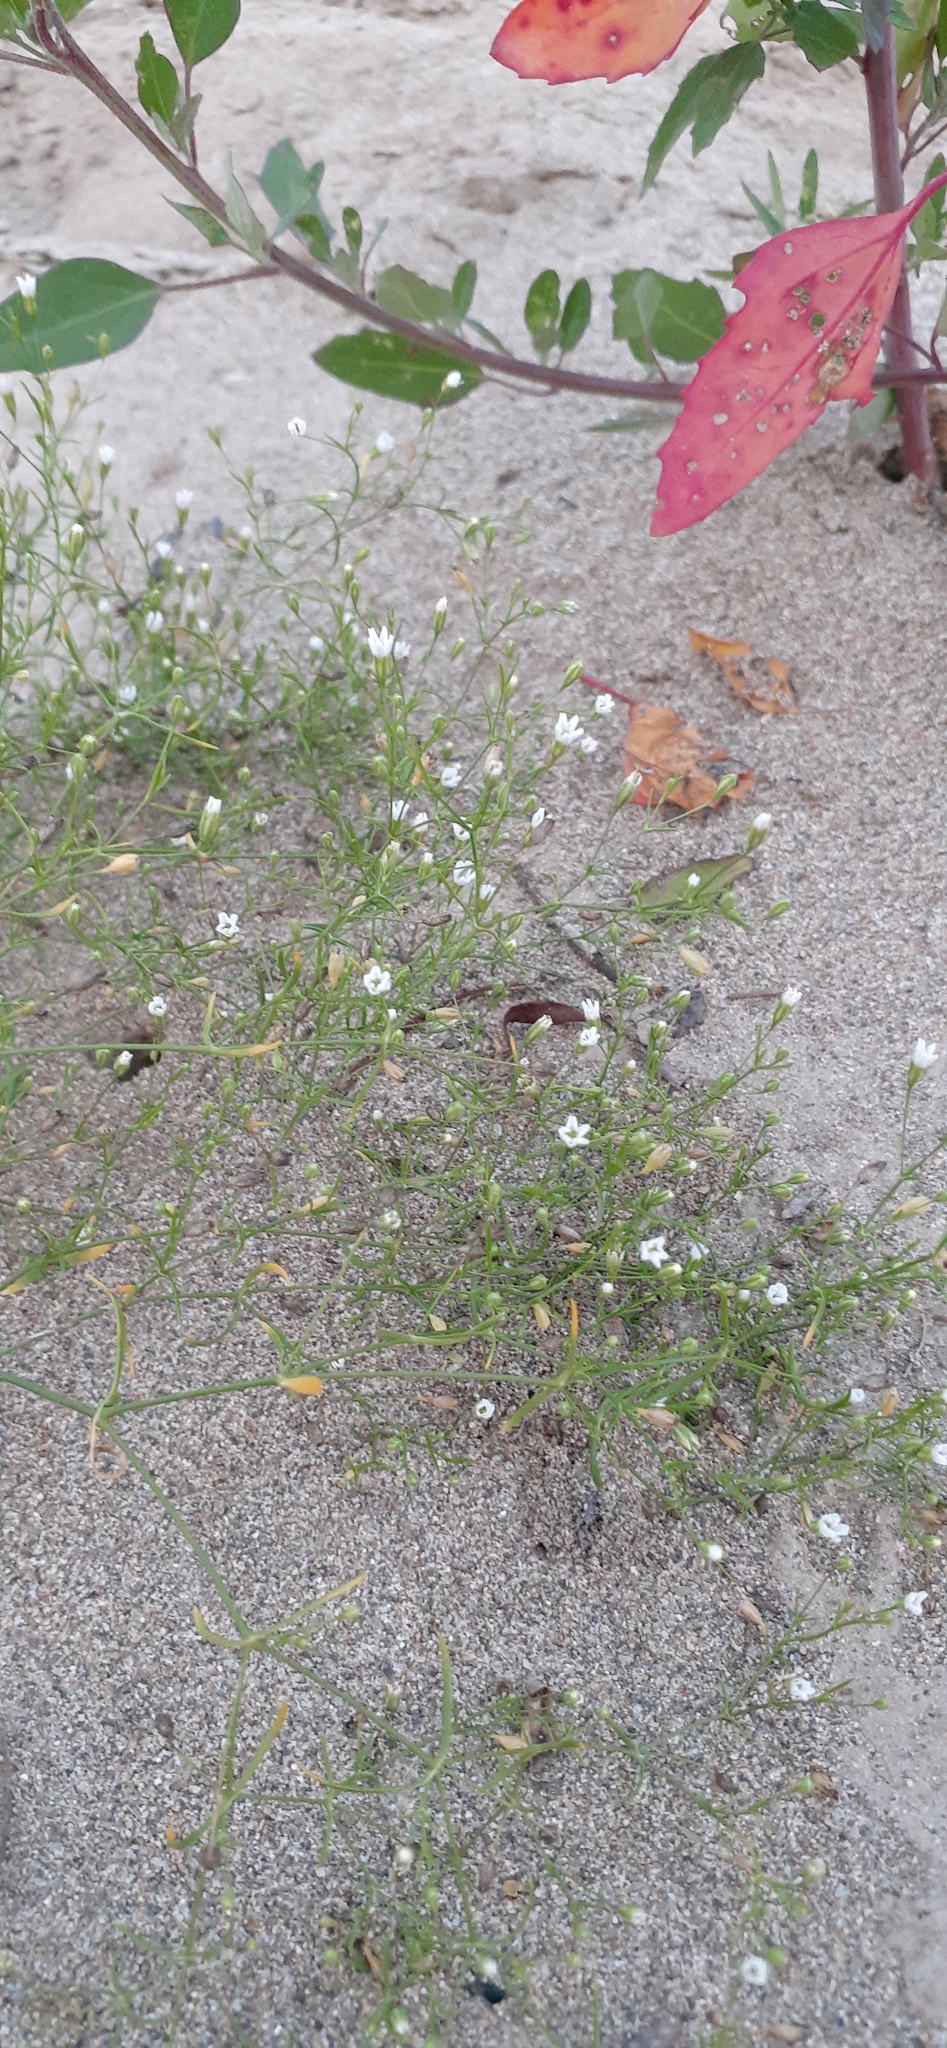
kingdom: Plantae
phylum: Tracheophyta
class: Magnoliopsida
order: Caryophyllales
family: Caryophyllaceae
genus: Psammophiliella
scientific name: Psammophiliella muralis
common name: Cushion baby's-breath
